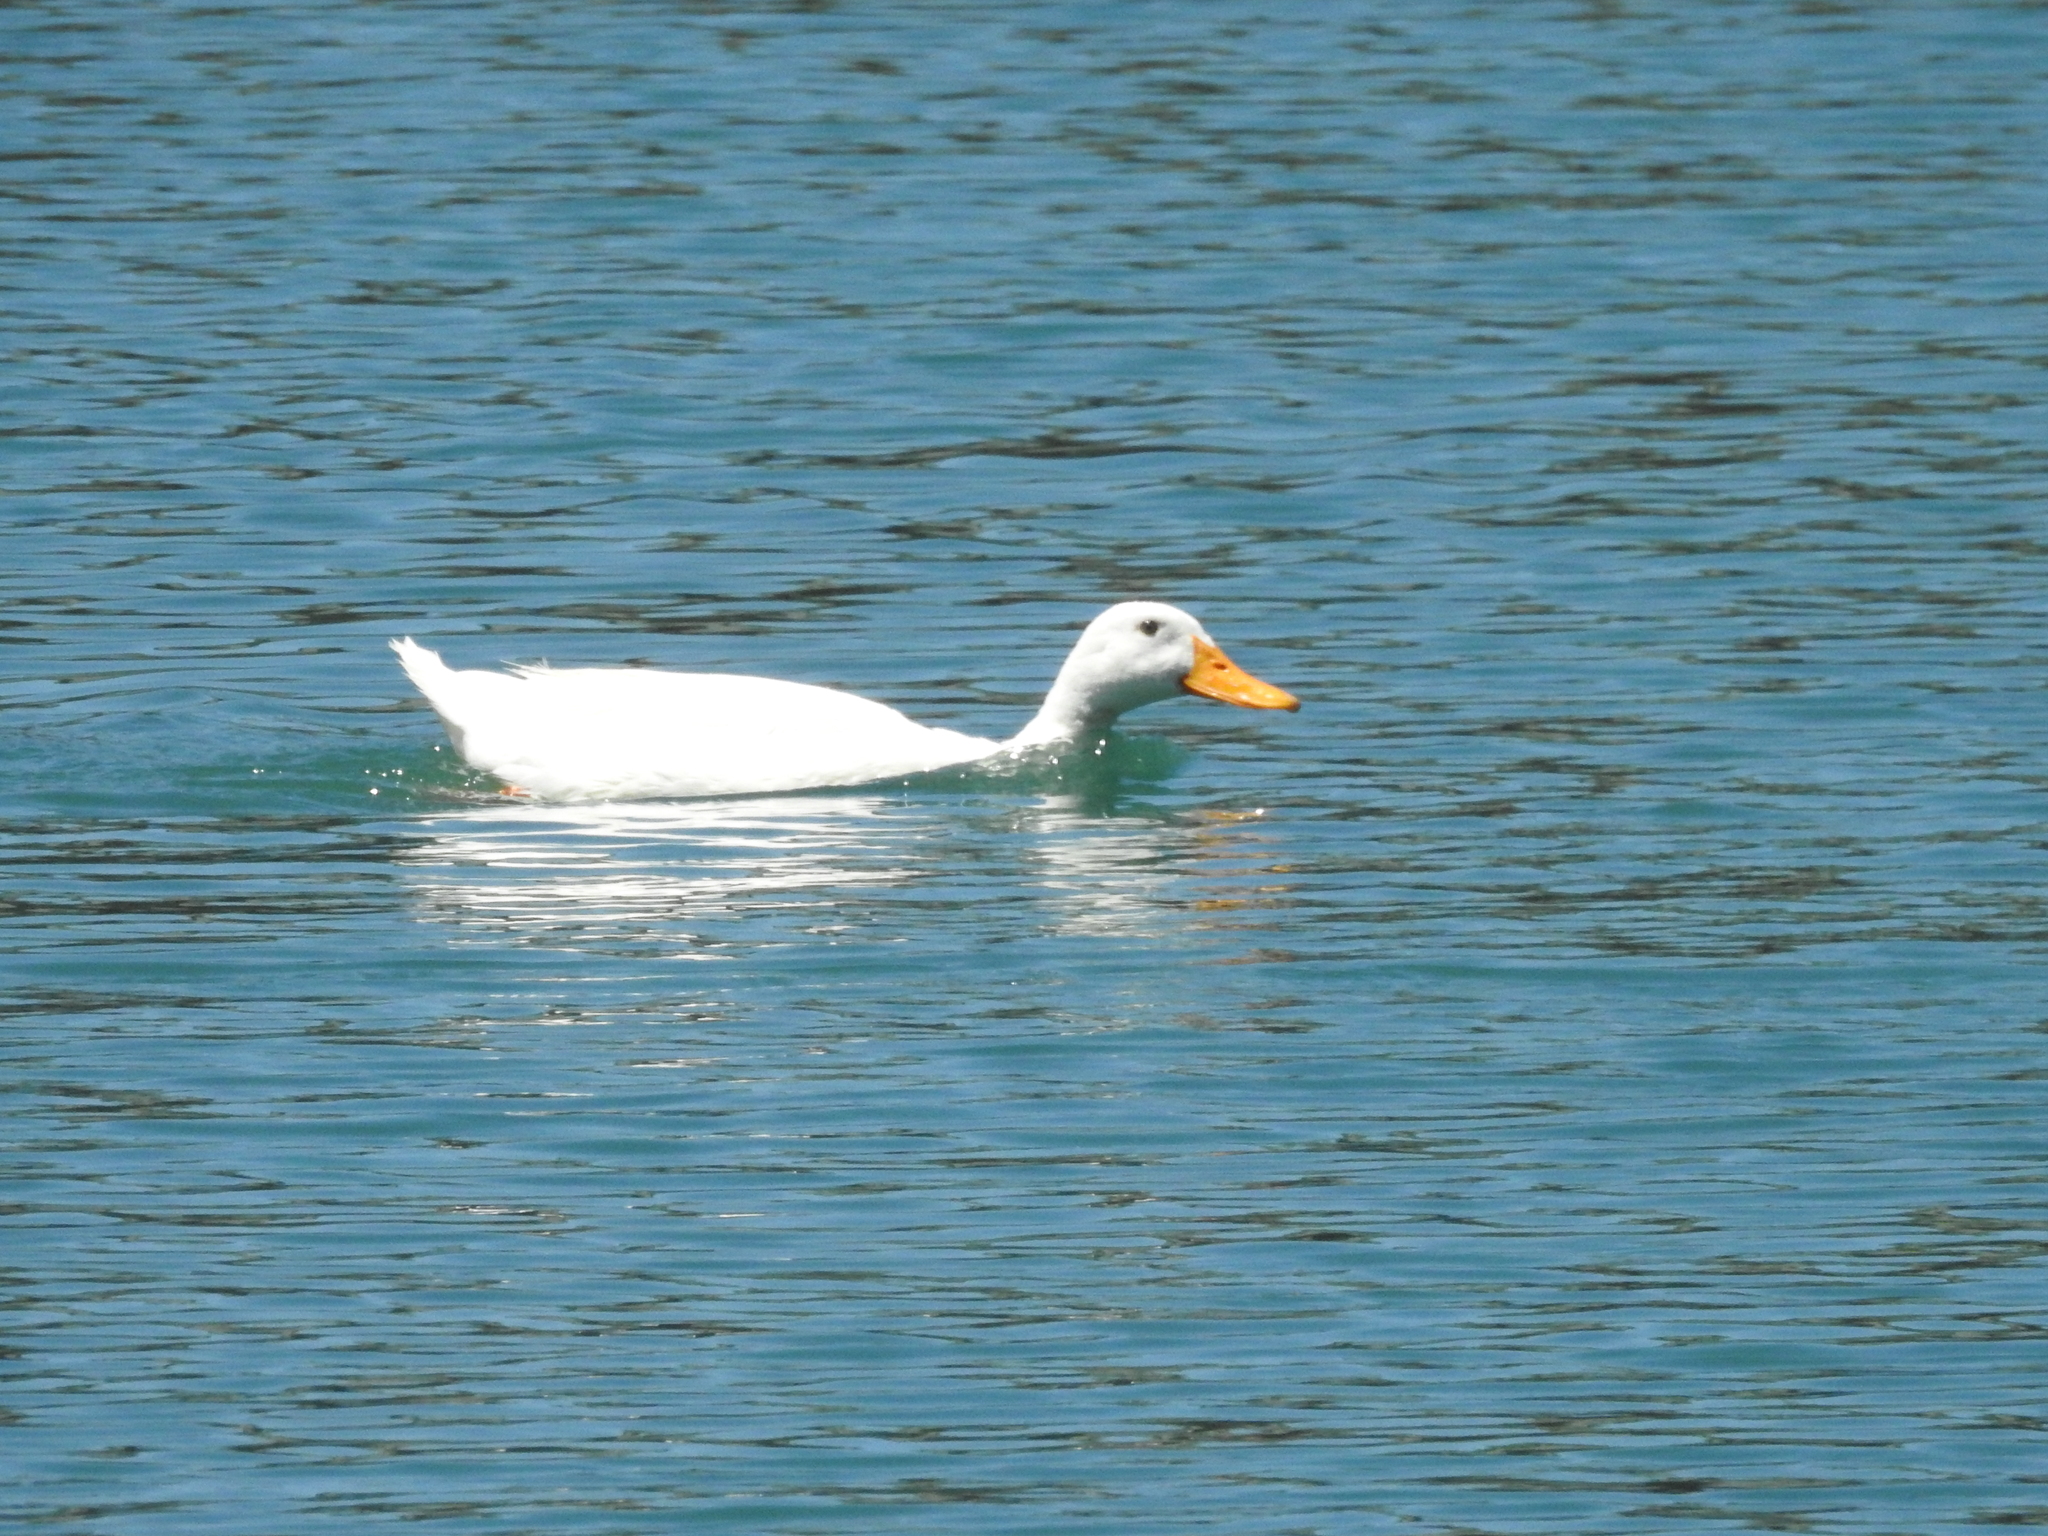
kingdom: Animalia
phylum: Chordata
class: Aves
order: Anseriformes
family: Anatidae
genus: Anas
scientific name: Anas platyrhynchos
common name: Mallard
